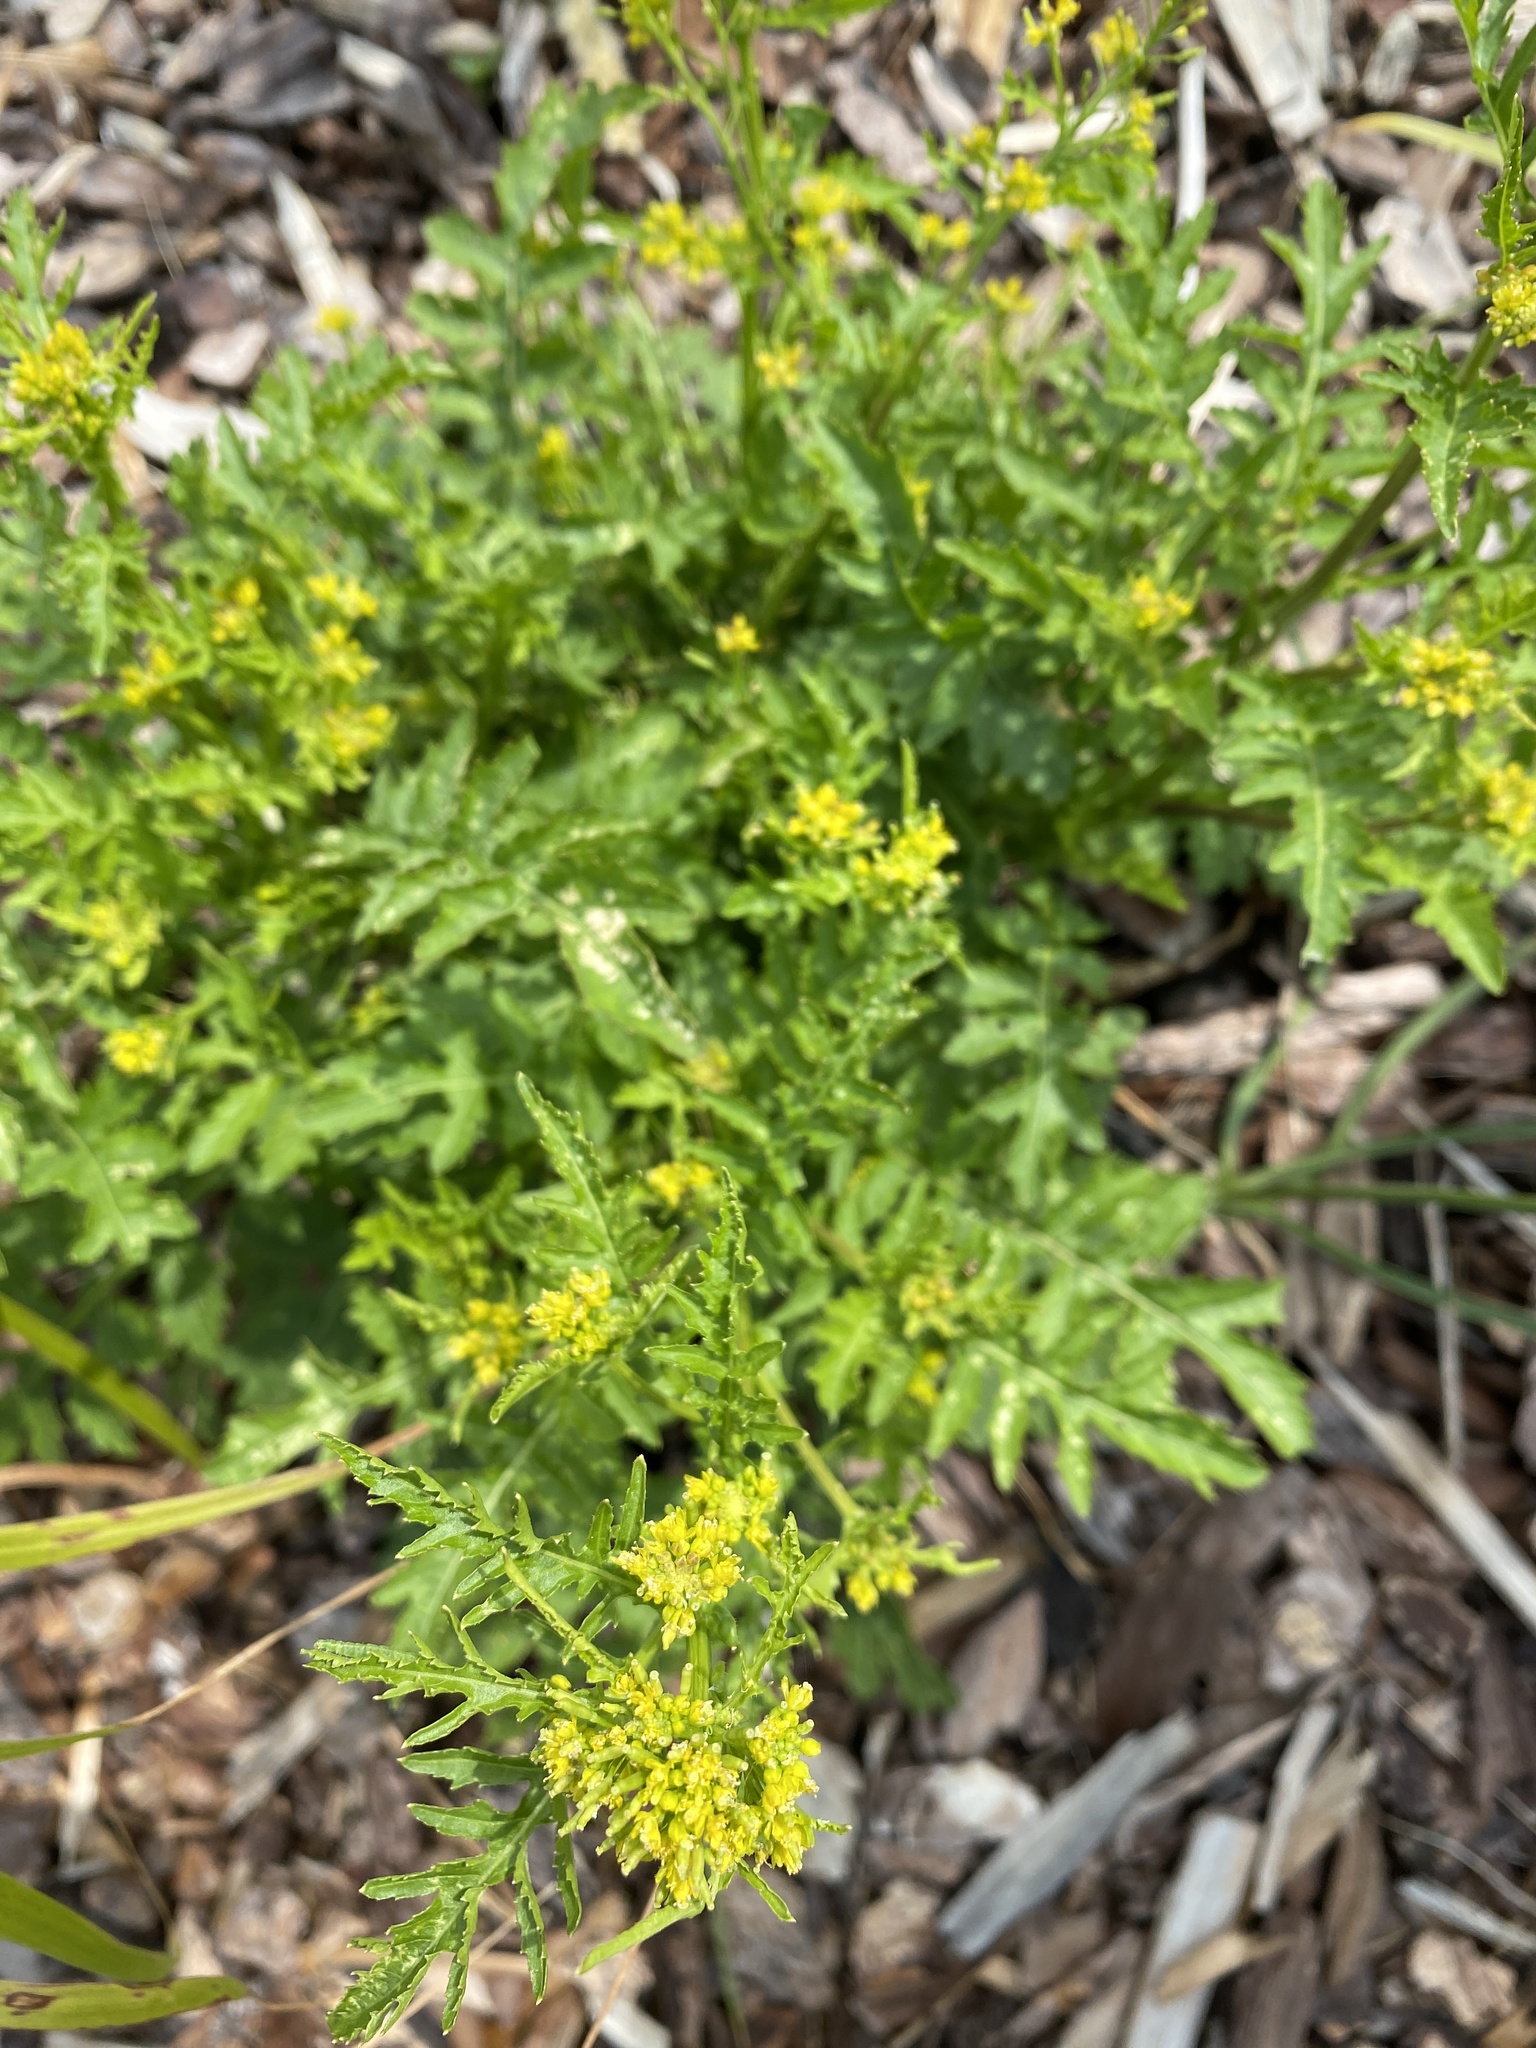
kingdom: Plantae
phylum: Tracheophyta
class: Magnoliopsida
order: Brassicales
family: Brassicaceae
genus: Rorippa
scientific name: Rorippa palustris
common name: Marsh yellow-cress
